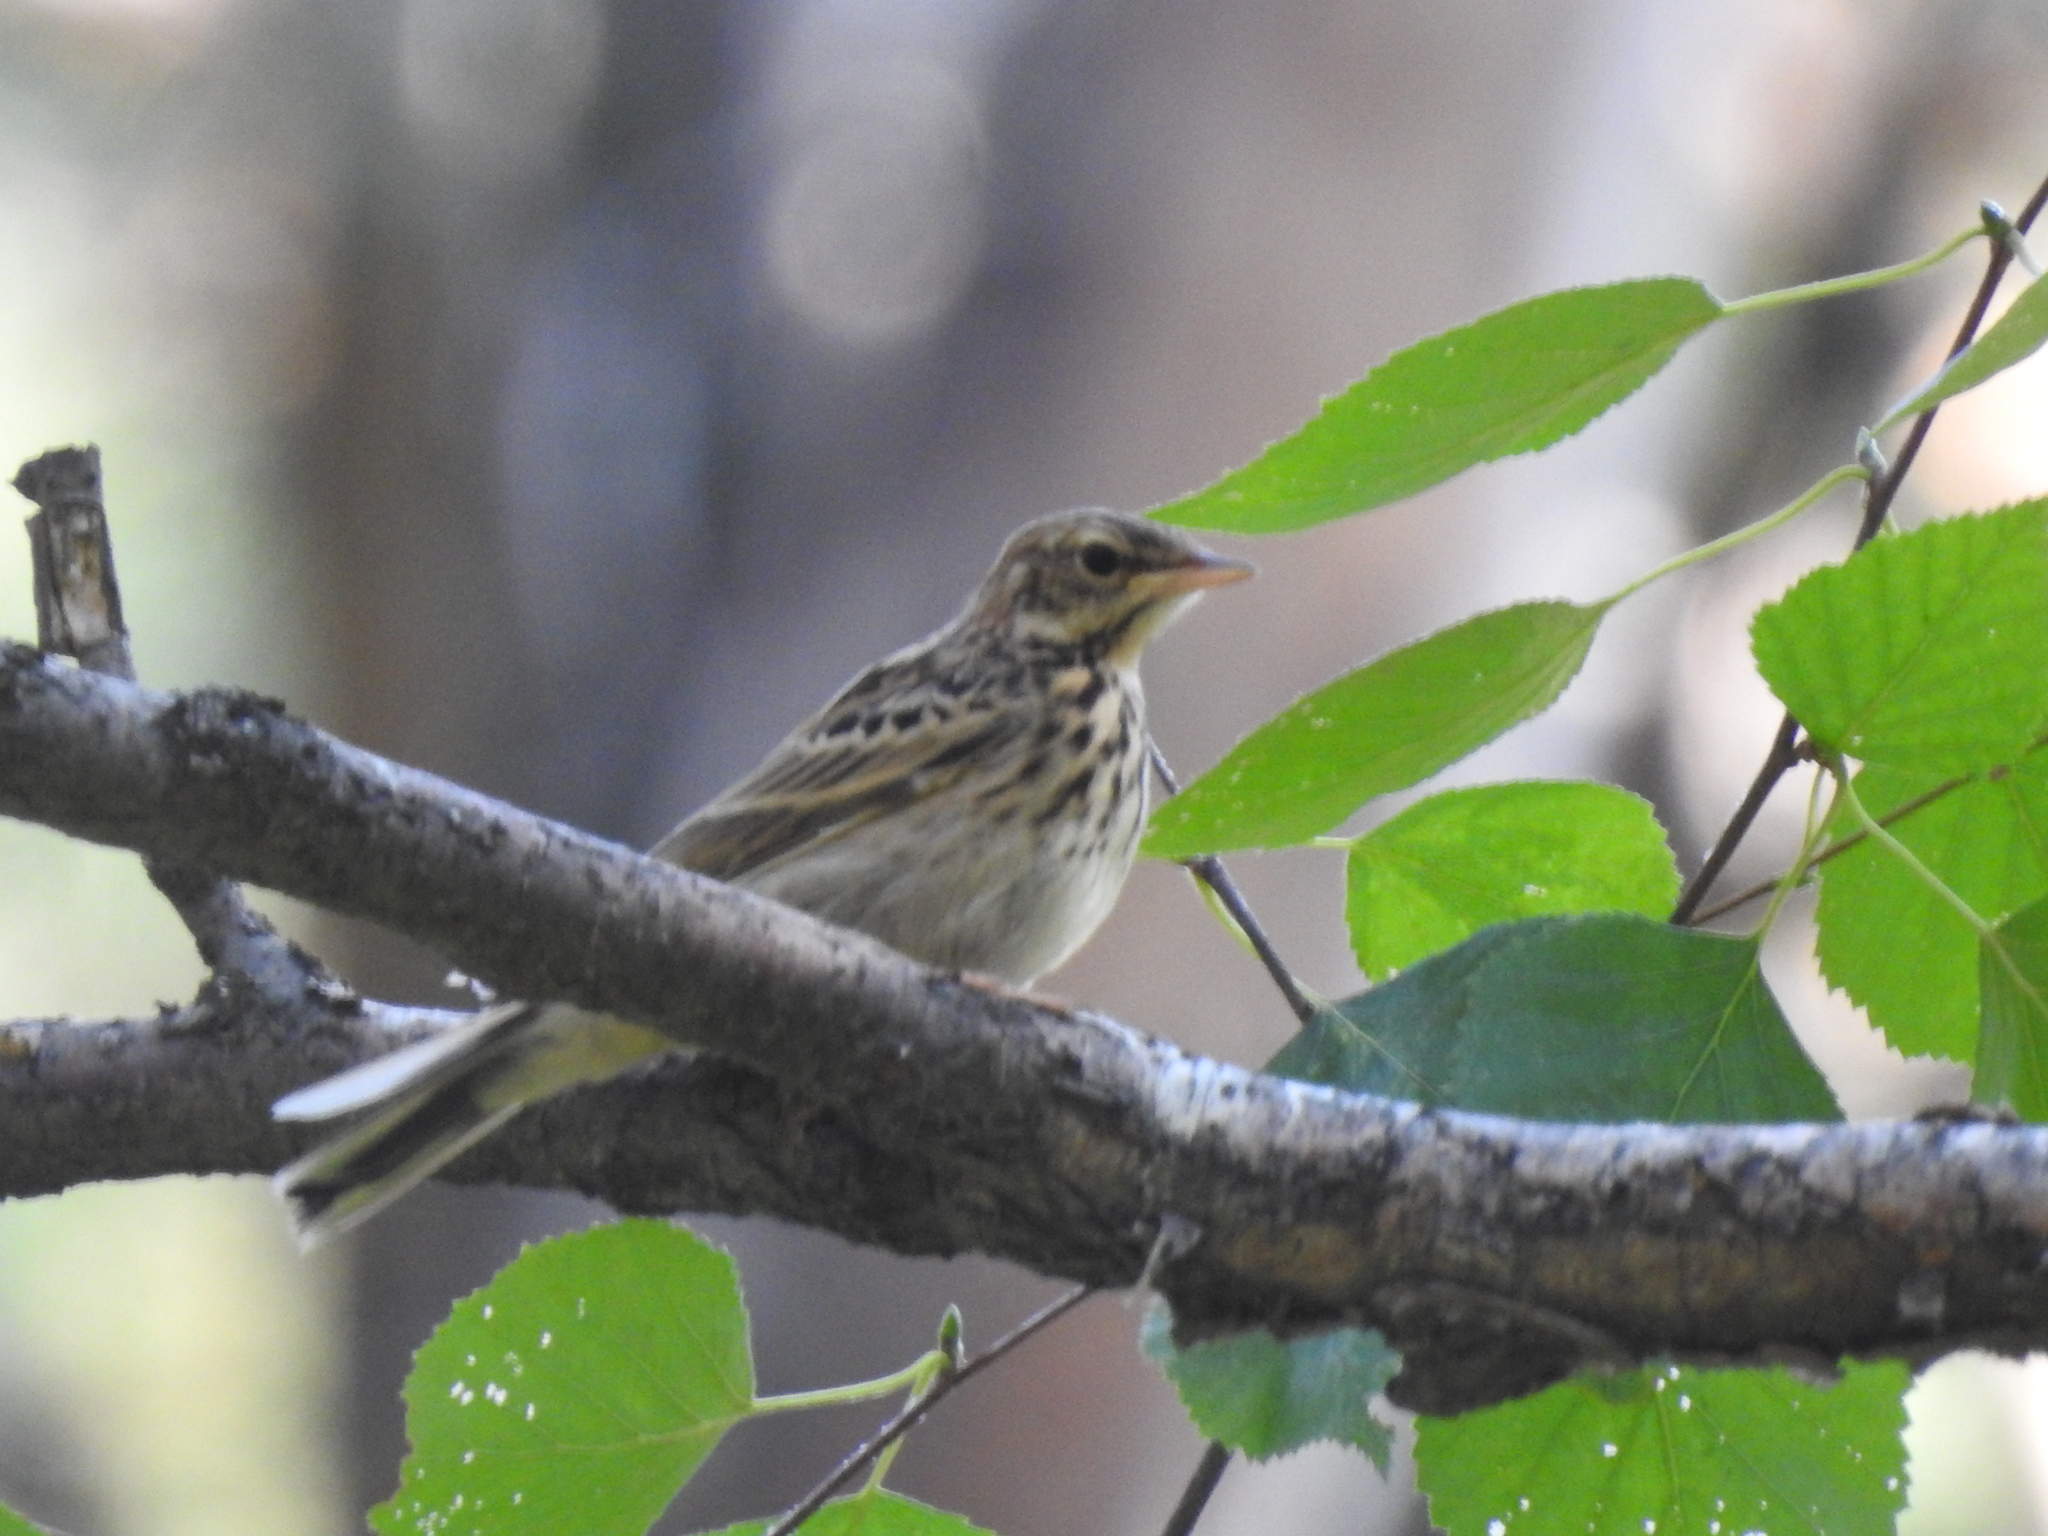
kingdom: Animalia
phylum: Chordata
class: Aves
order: Passeriformes
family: Motacillidae
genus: Anthus
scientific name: Anthus trivialis
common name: Tree pipit
